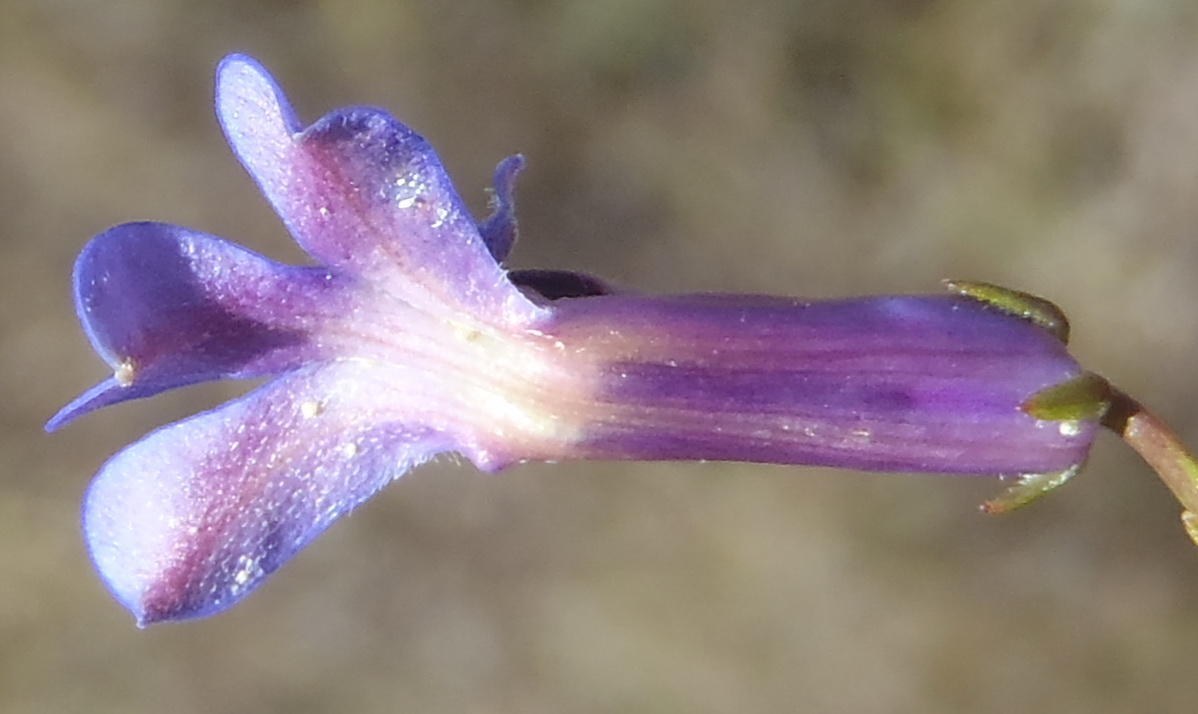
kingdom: Plantae
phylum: Tracheophyta
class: Magnoliopsida
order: Asterales
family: Campanulaceae
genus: Lobelia
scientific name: Lobelia tomentosa
